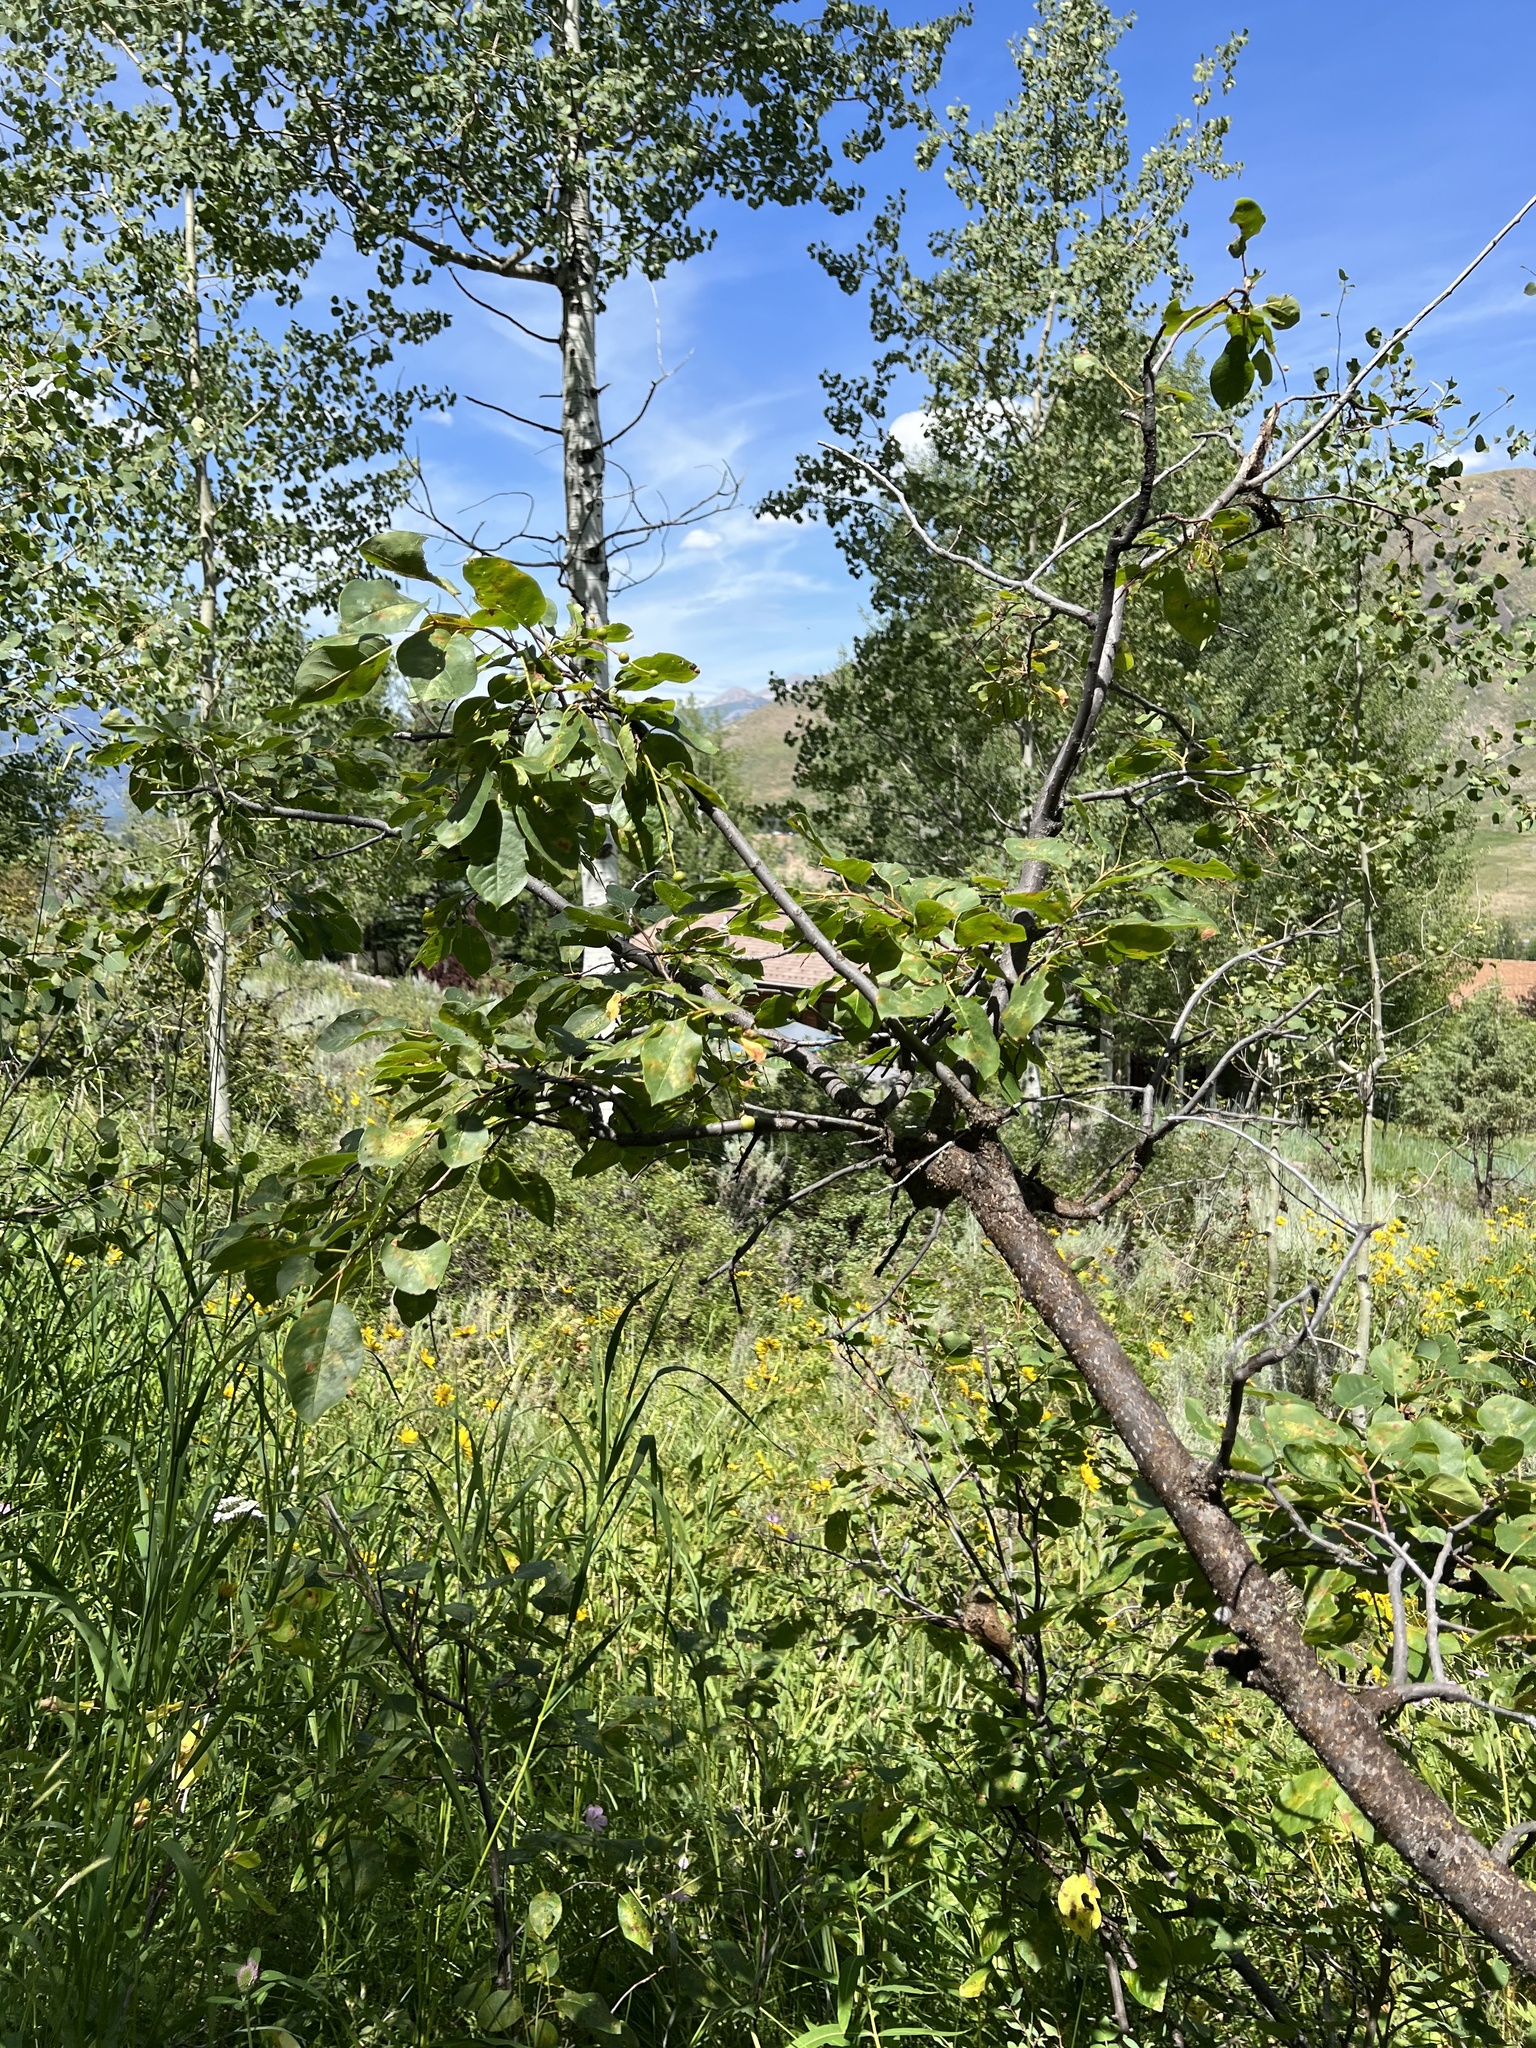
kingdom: Plantae
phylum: Tracheophyta
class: Magnoliopsida
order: Rosales
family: Rosaceae
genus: Prunus
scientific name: Prunus virginiana
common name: Chokecherry
